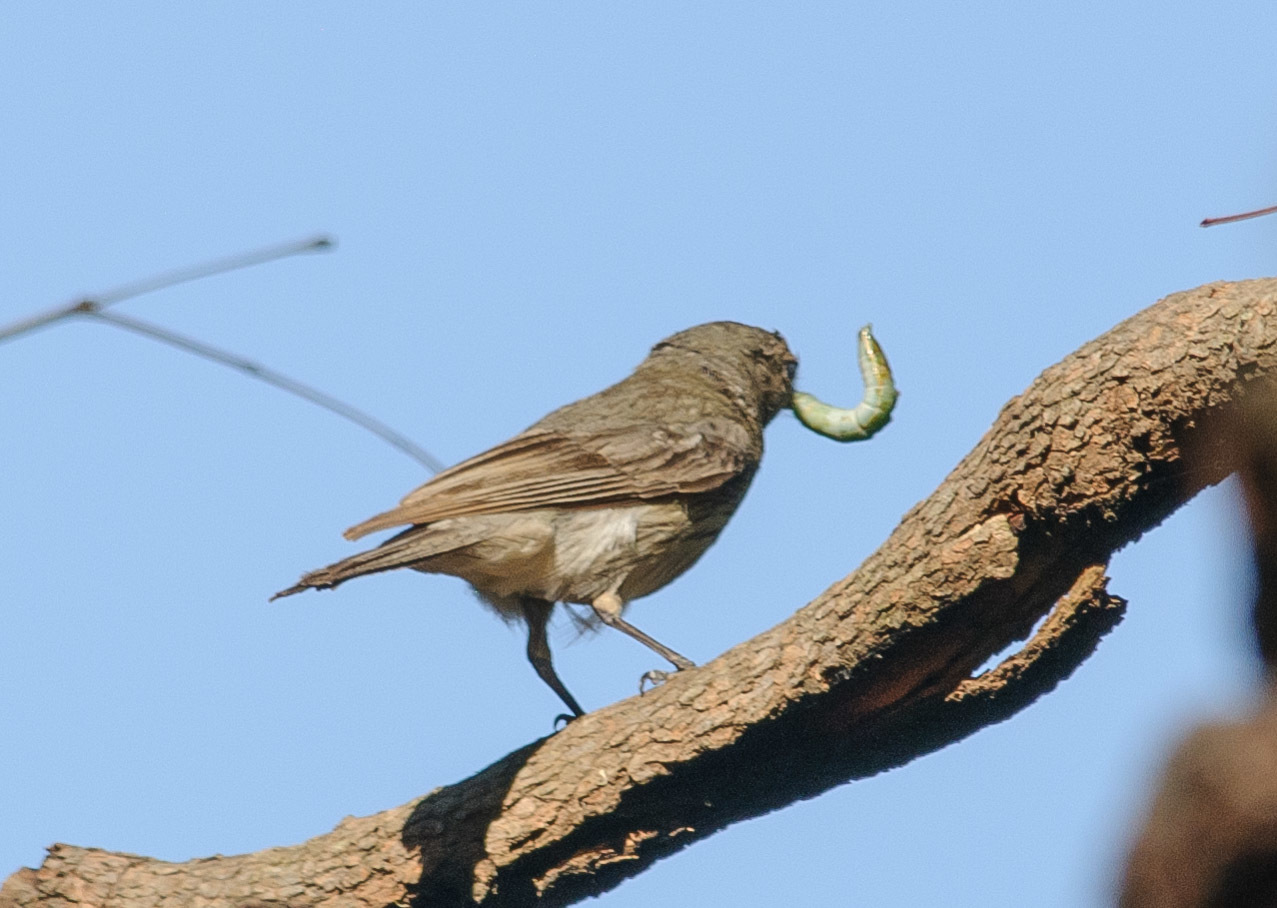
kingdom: Animalia
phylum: Chordata
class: Aves
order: Passeriformes
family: Pachycephalidae
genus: Pachycephala
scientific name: Pachycephala pectoralis
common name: Australian golden whistler
